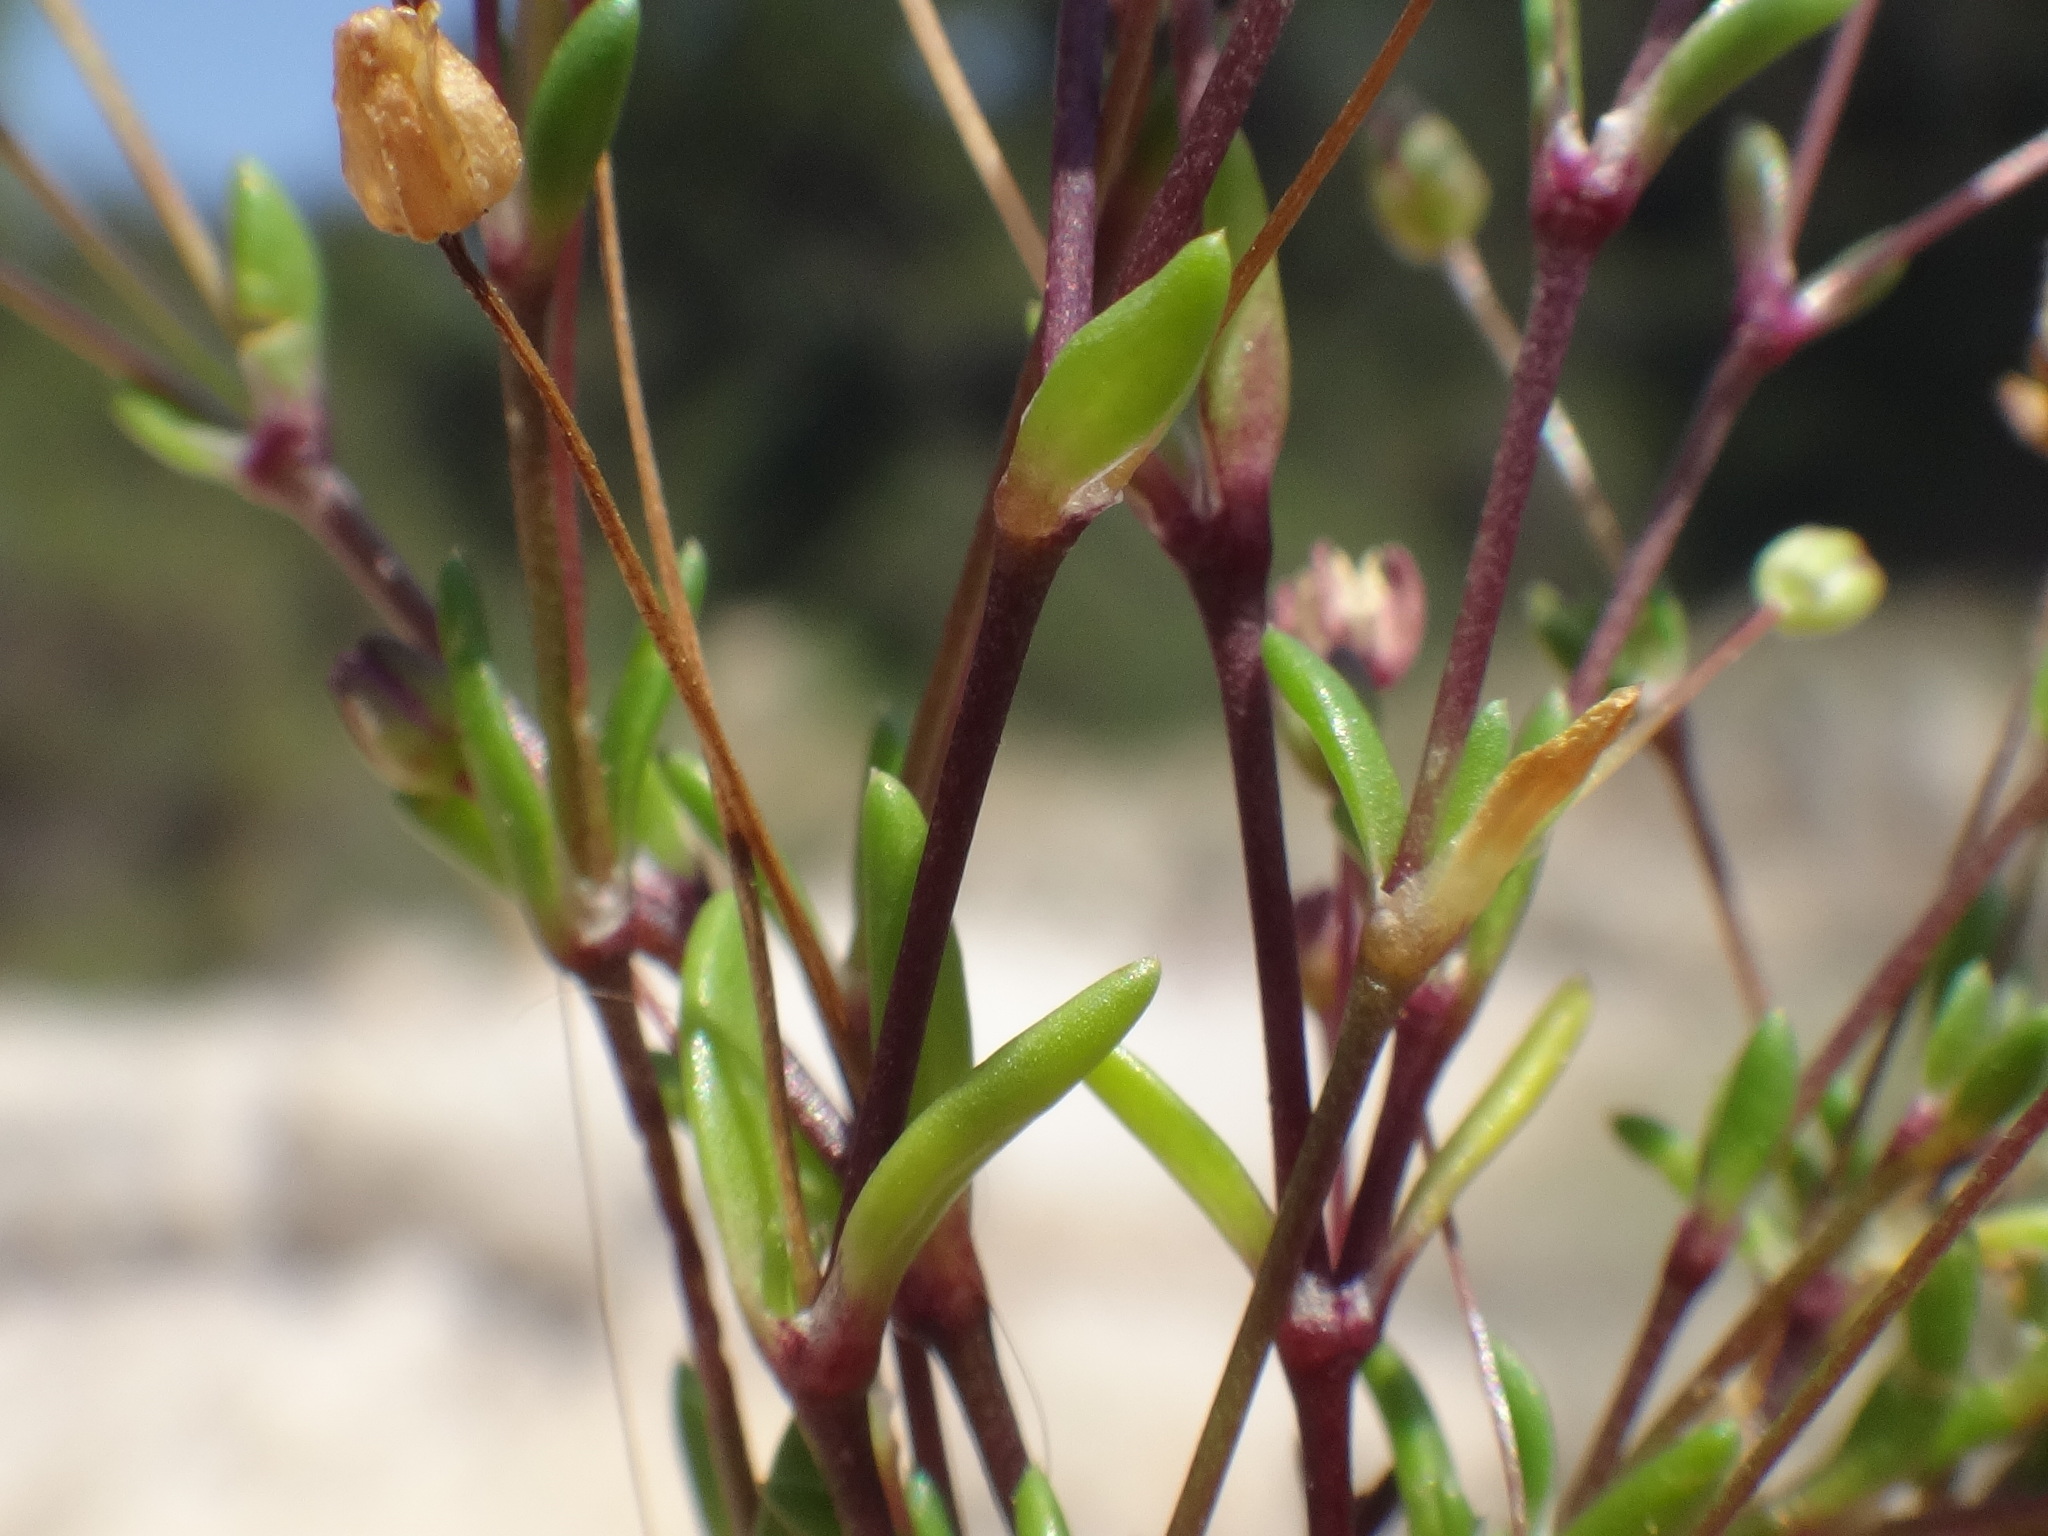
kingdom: Plantae
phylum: Tracheophyta
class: Magnoliopsida
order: Caryophyllales
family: Caryophyllaceae
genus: Sagina
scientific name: Sagina maritima
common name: Sea pearlwort
